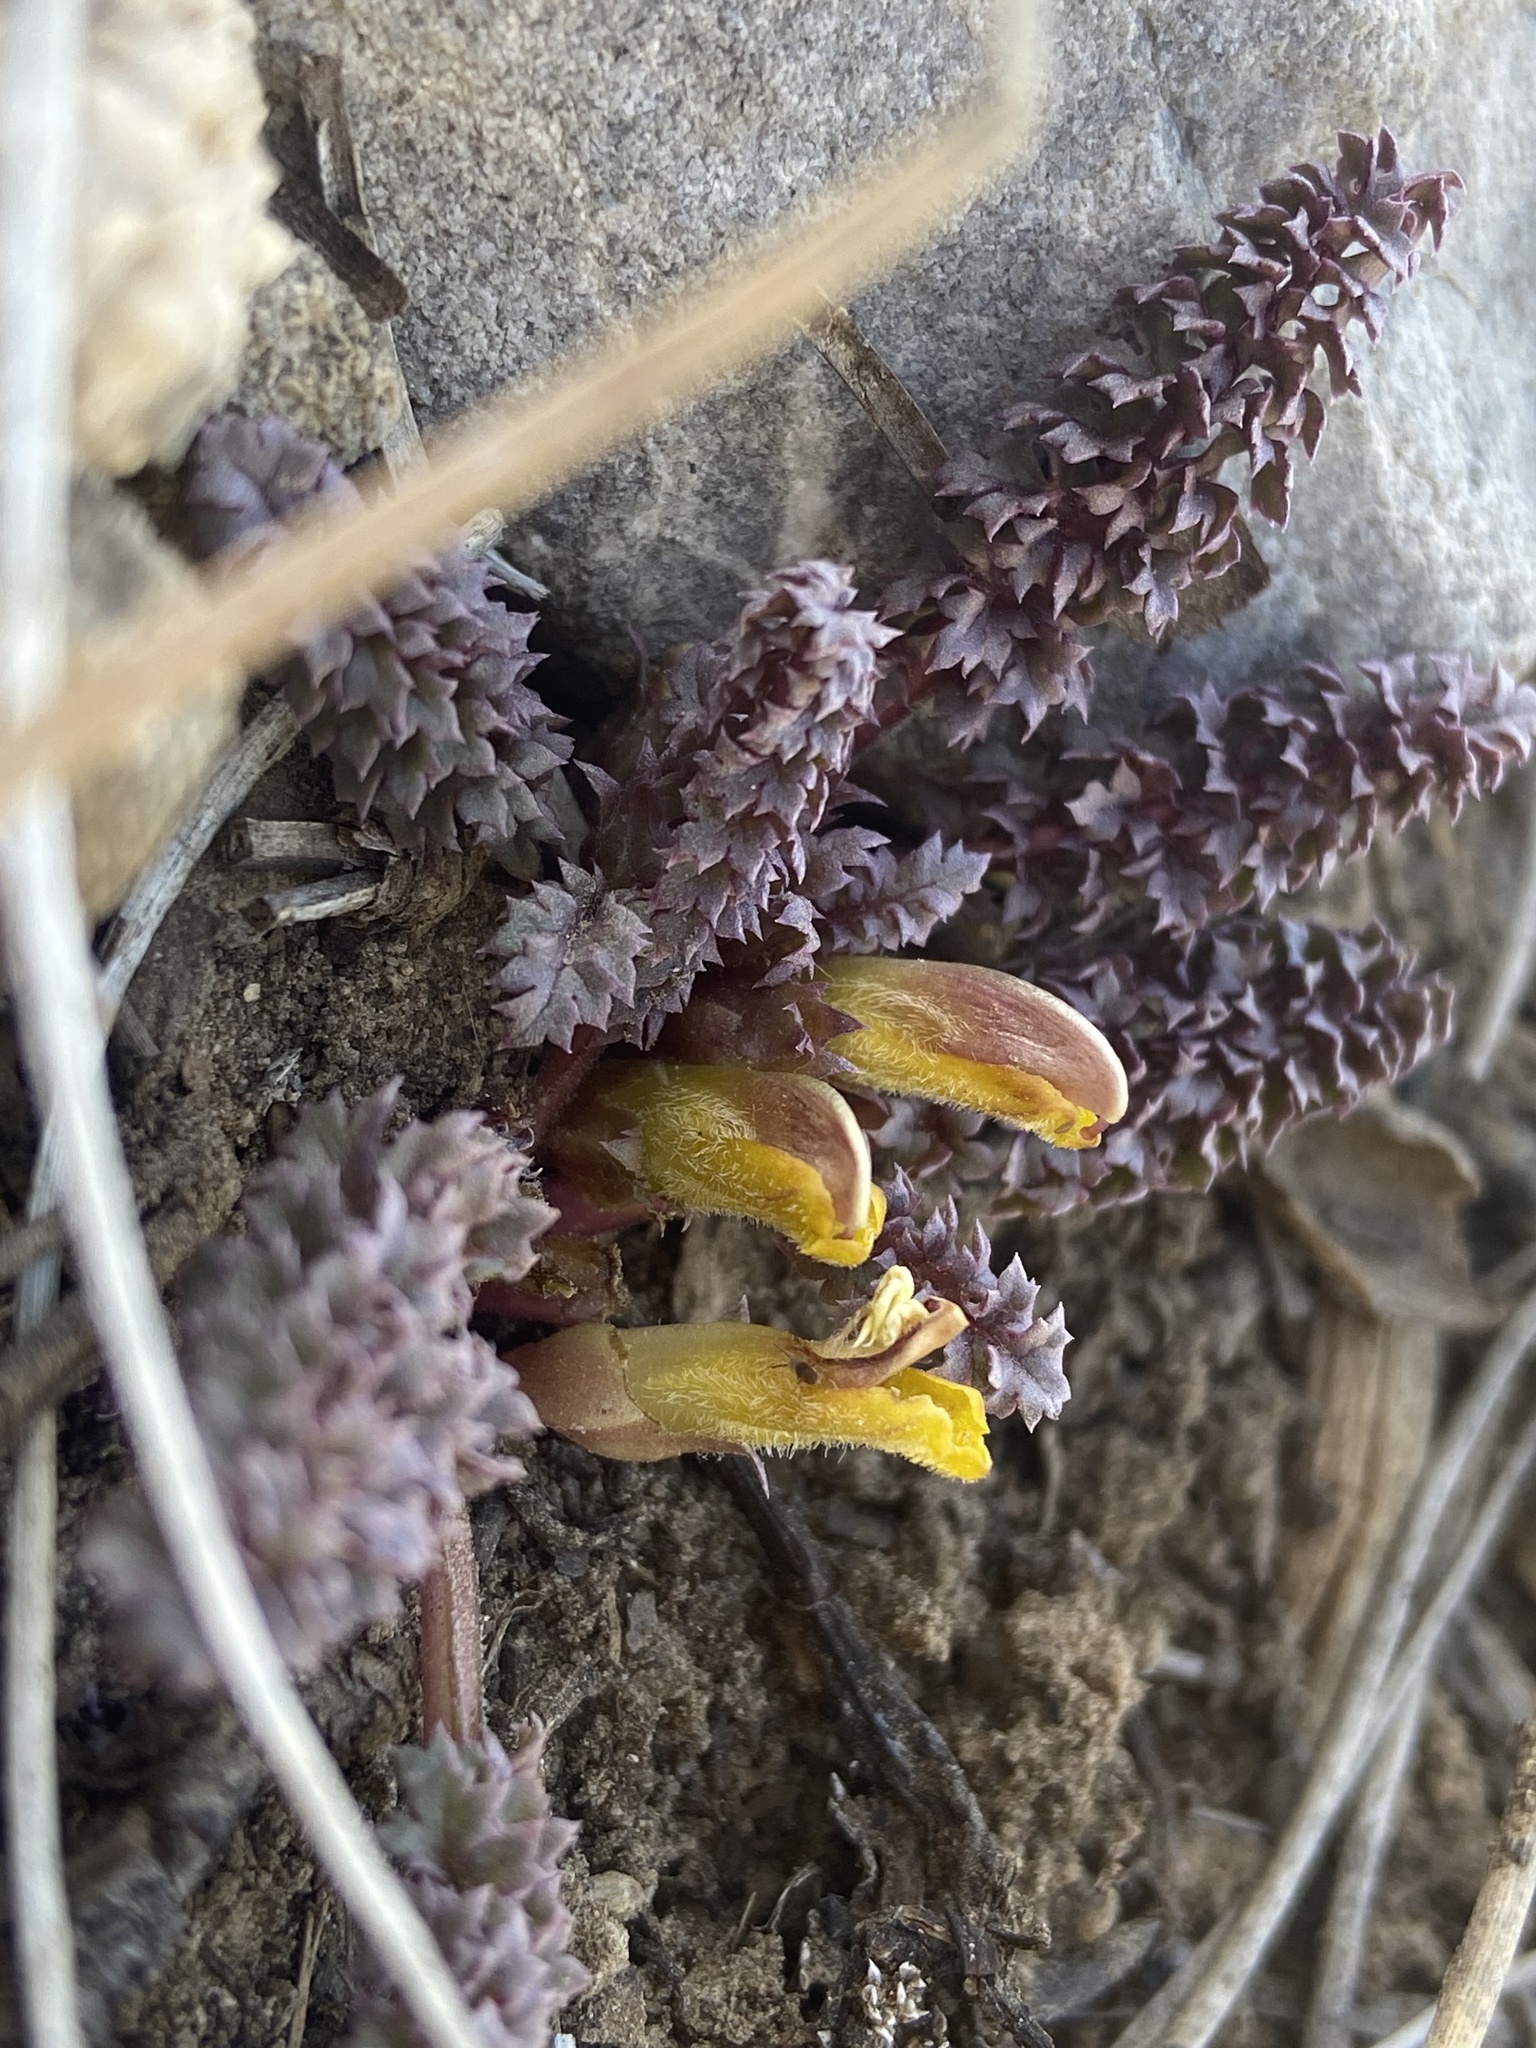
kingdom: Plantae
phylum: Tracheophyta
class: Magnoliopsida
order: Lamiales
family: Orobanchaceae
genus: Pedicularis
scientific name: Pedicularis semibarbata
